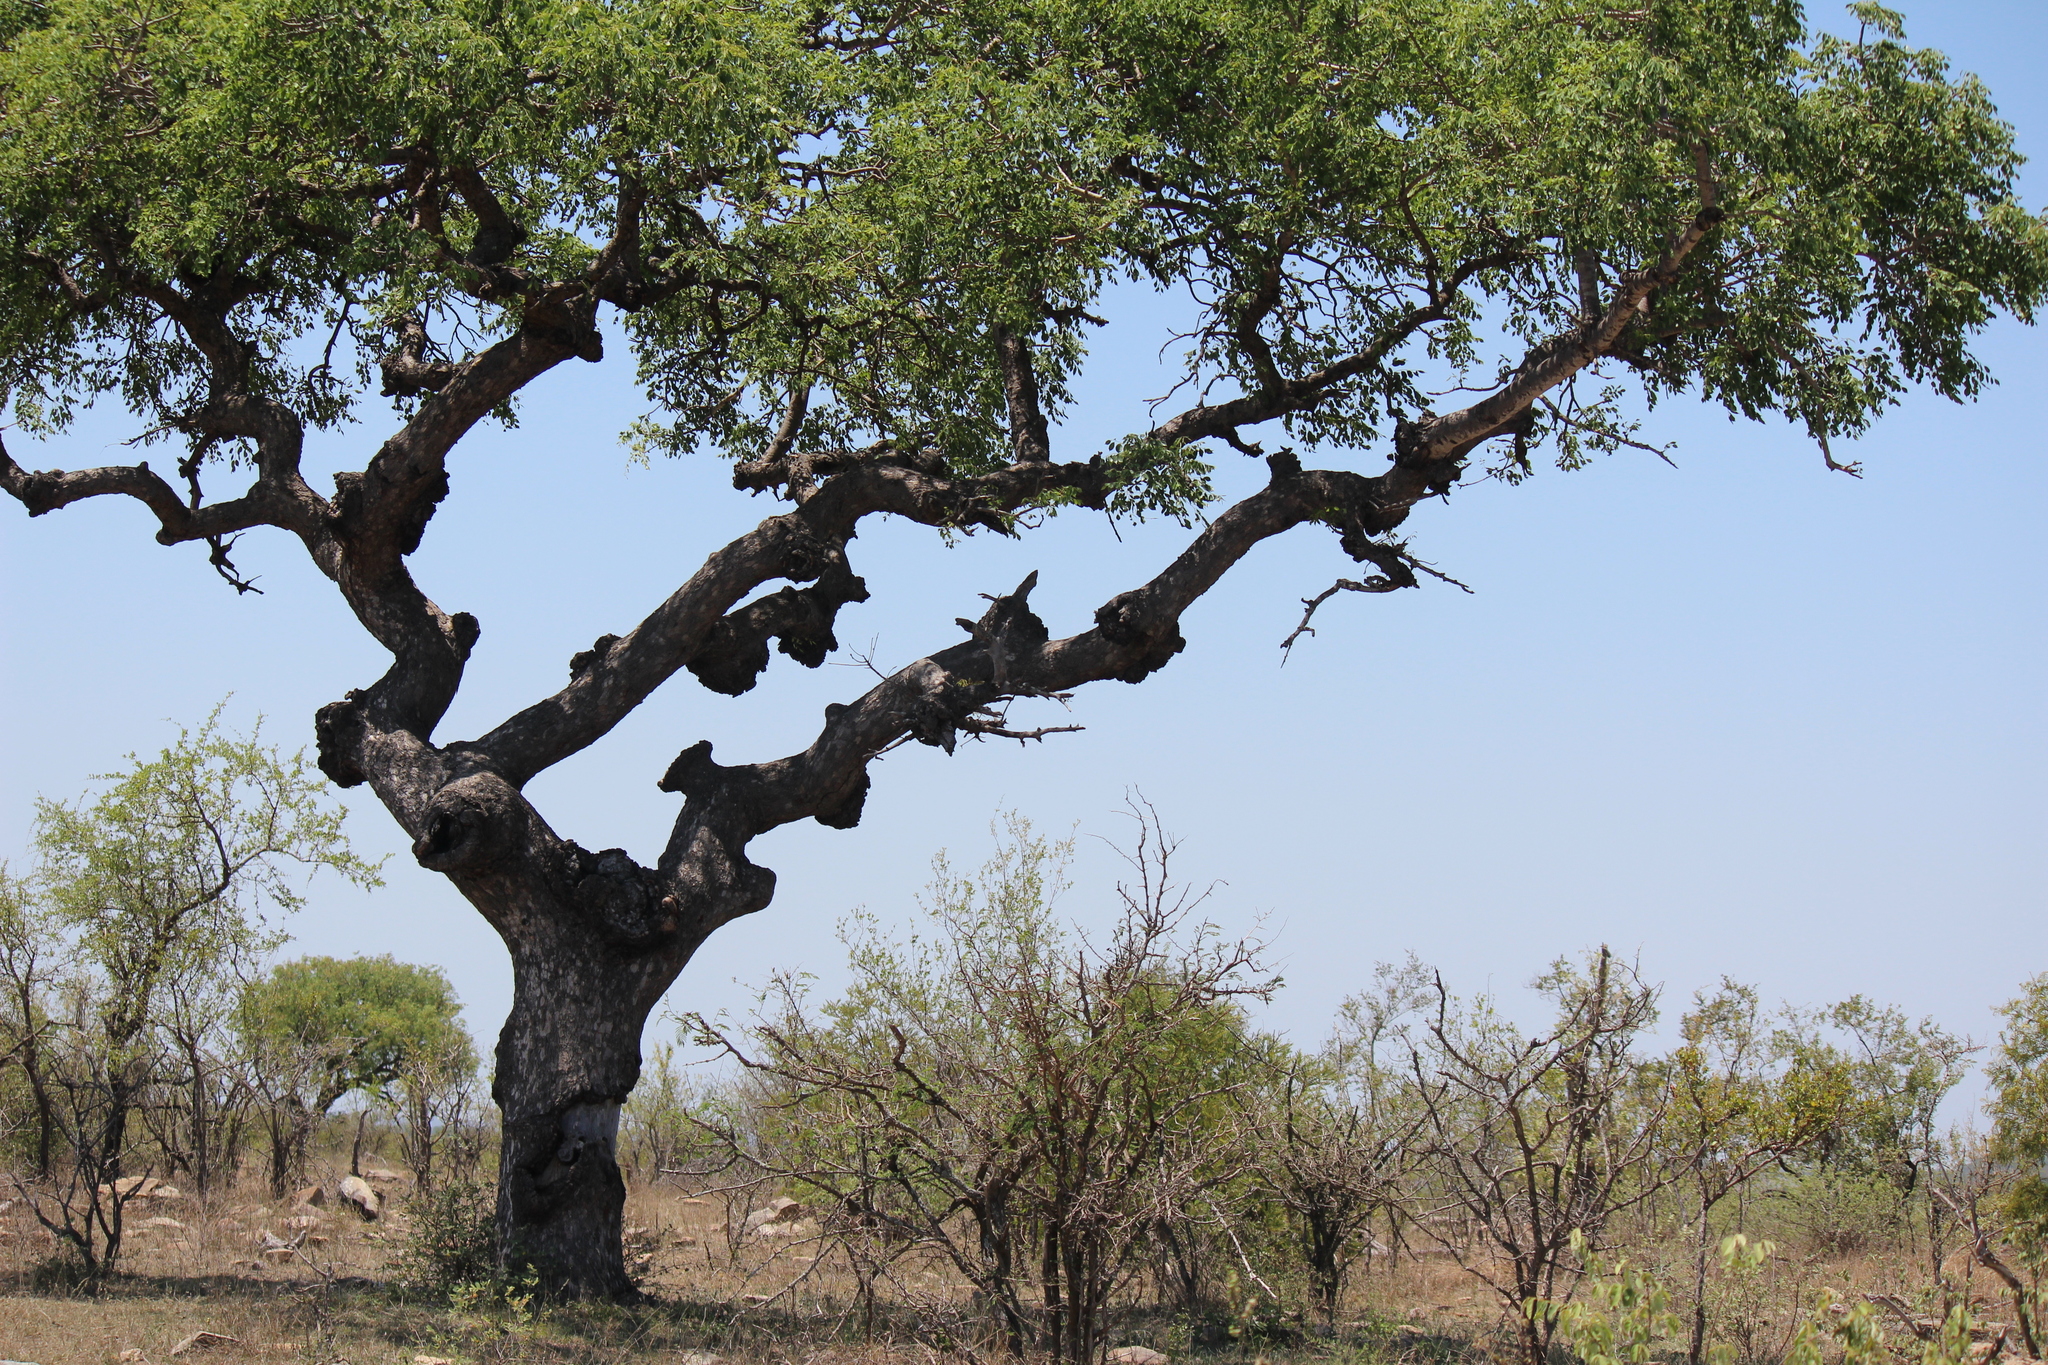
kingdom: Plantae
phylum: Tracheophyta
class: Magnoliopsida
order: Sapindales
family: Anacardiaceae
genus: Sclerocarya
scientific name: Sclerocarya birrea
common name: Marula
